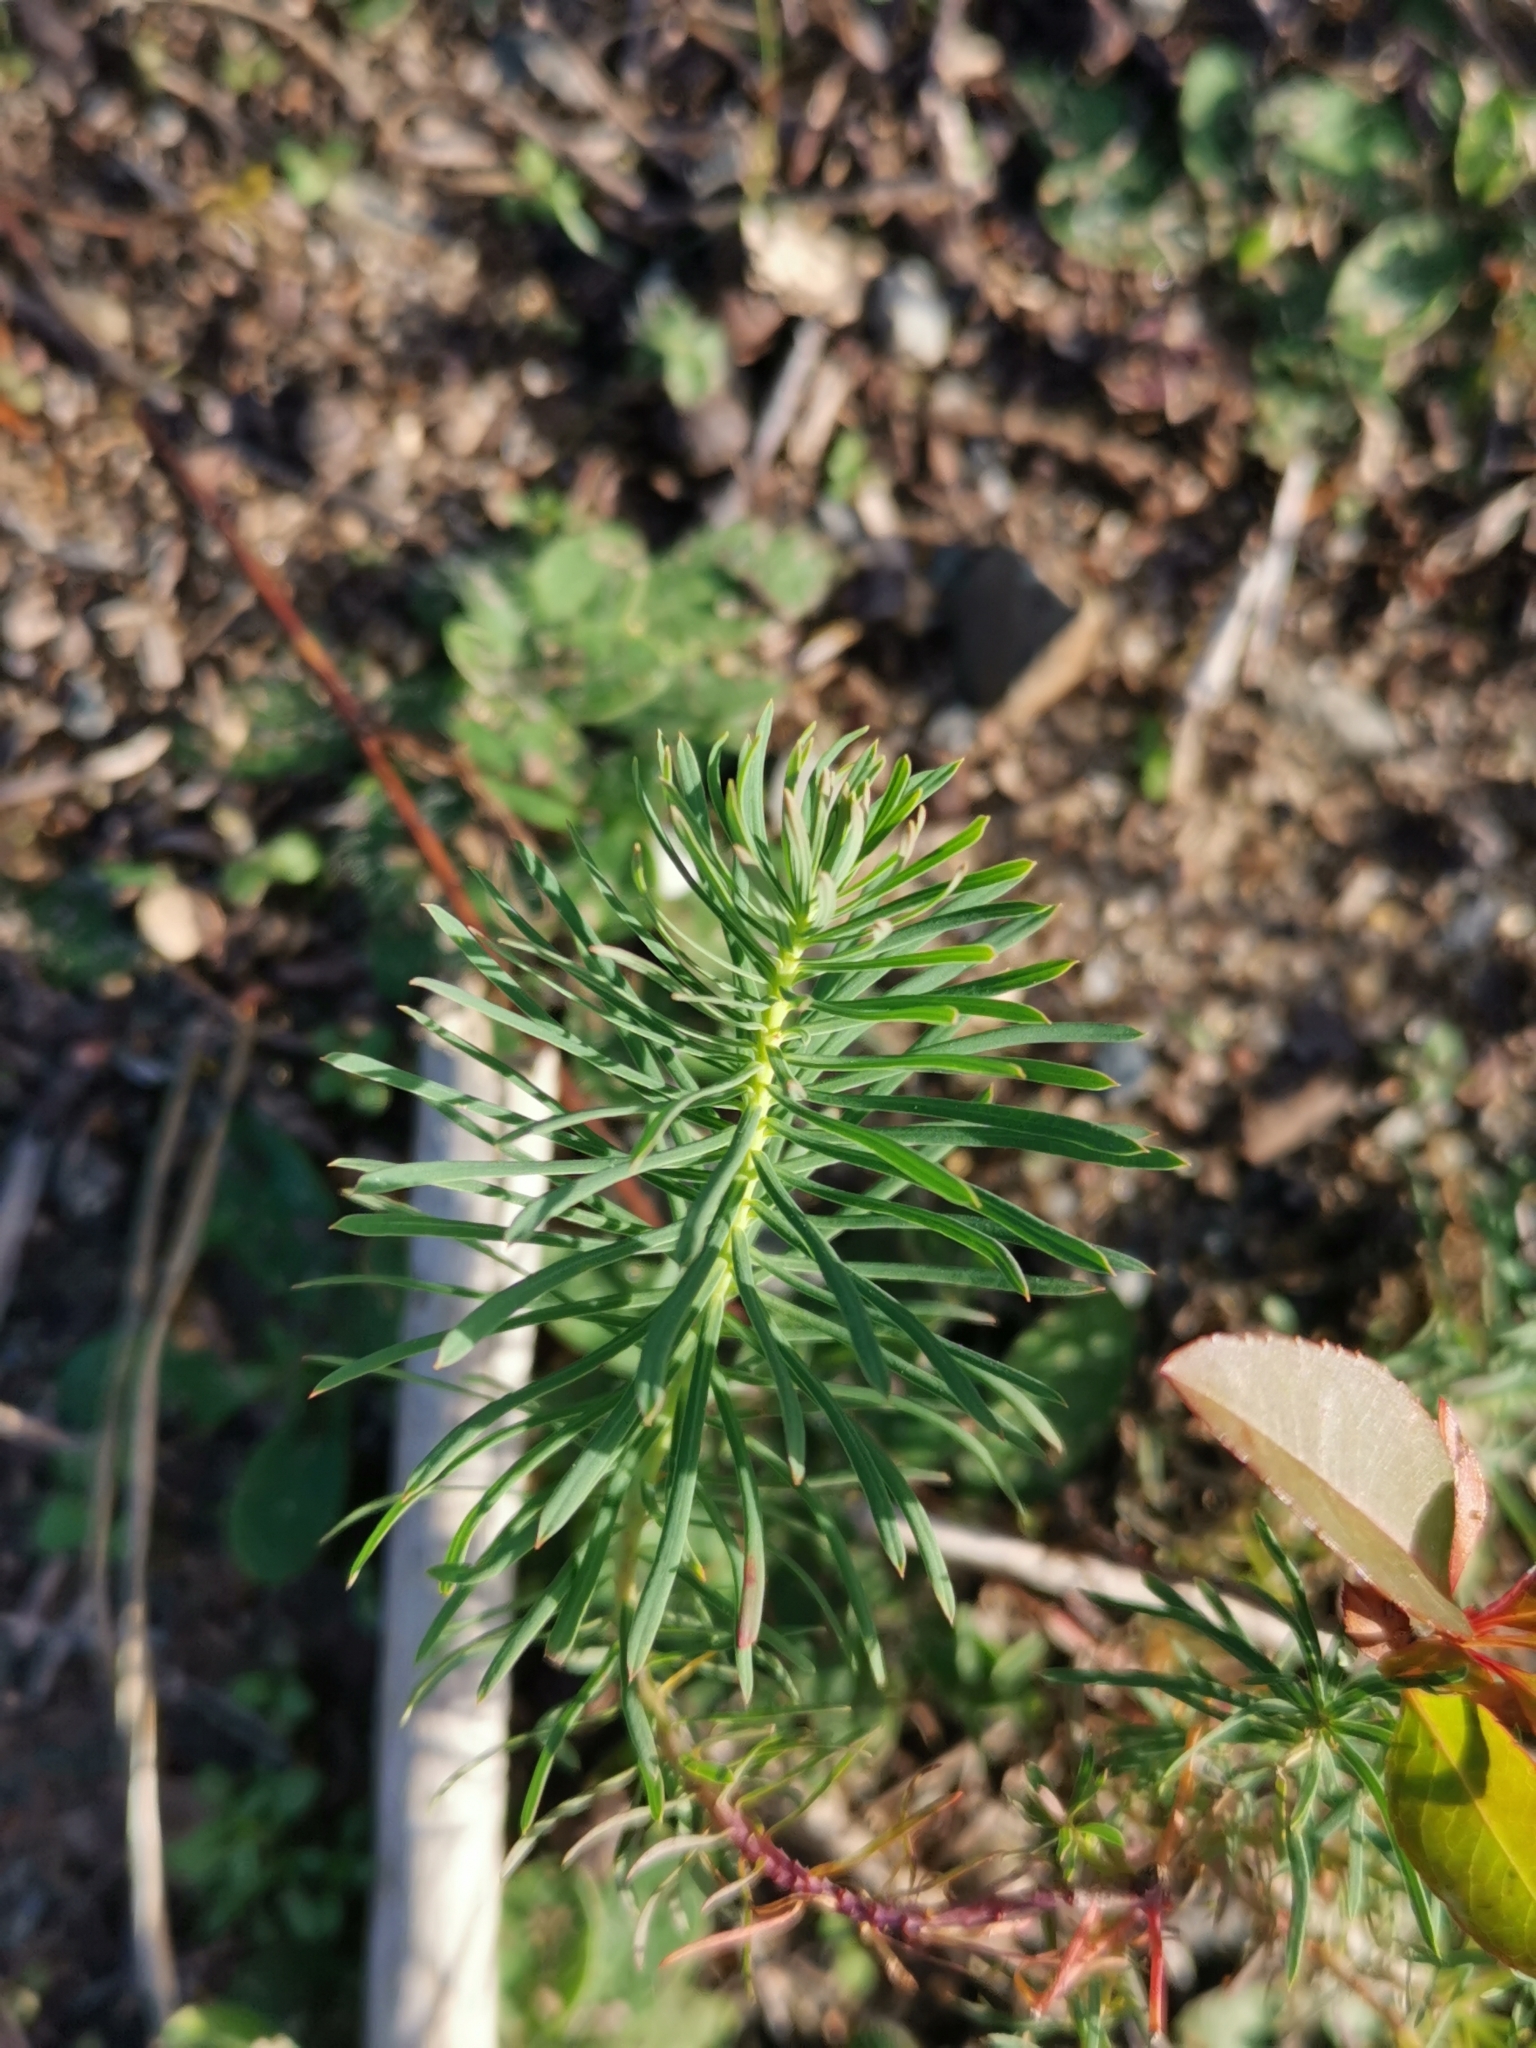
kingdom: Plantae
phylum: Tracheophyta
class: Magnoliopsida
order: Malpighiales
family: Euphorbiaceae
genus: Euphorbia
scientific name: Euphorbia cyparissias
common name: Cypress spurge
